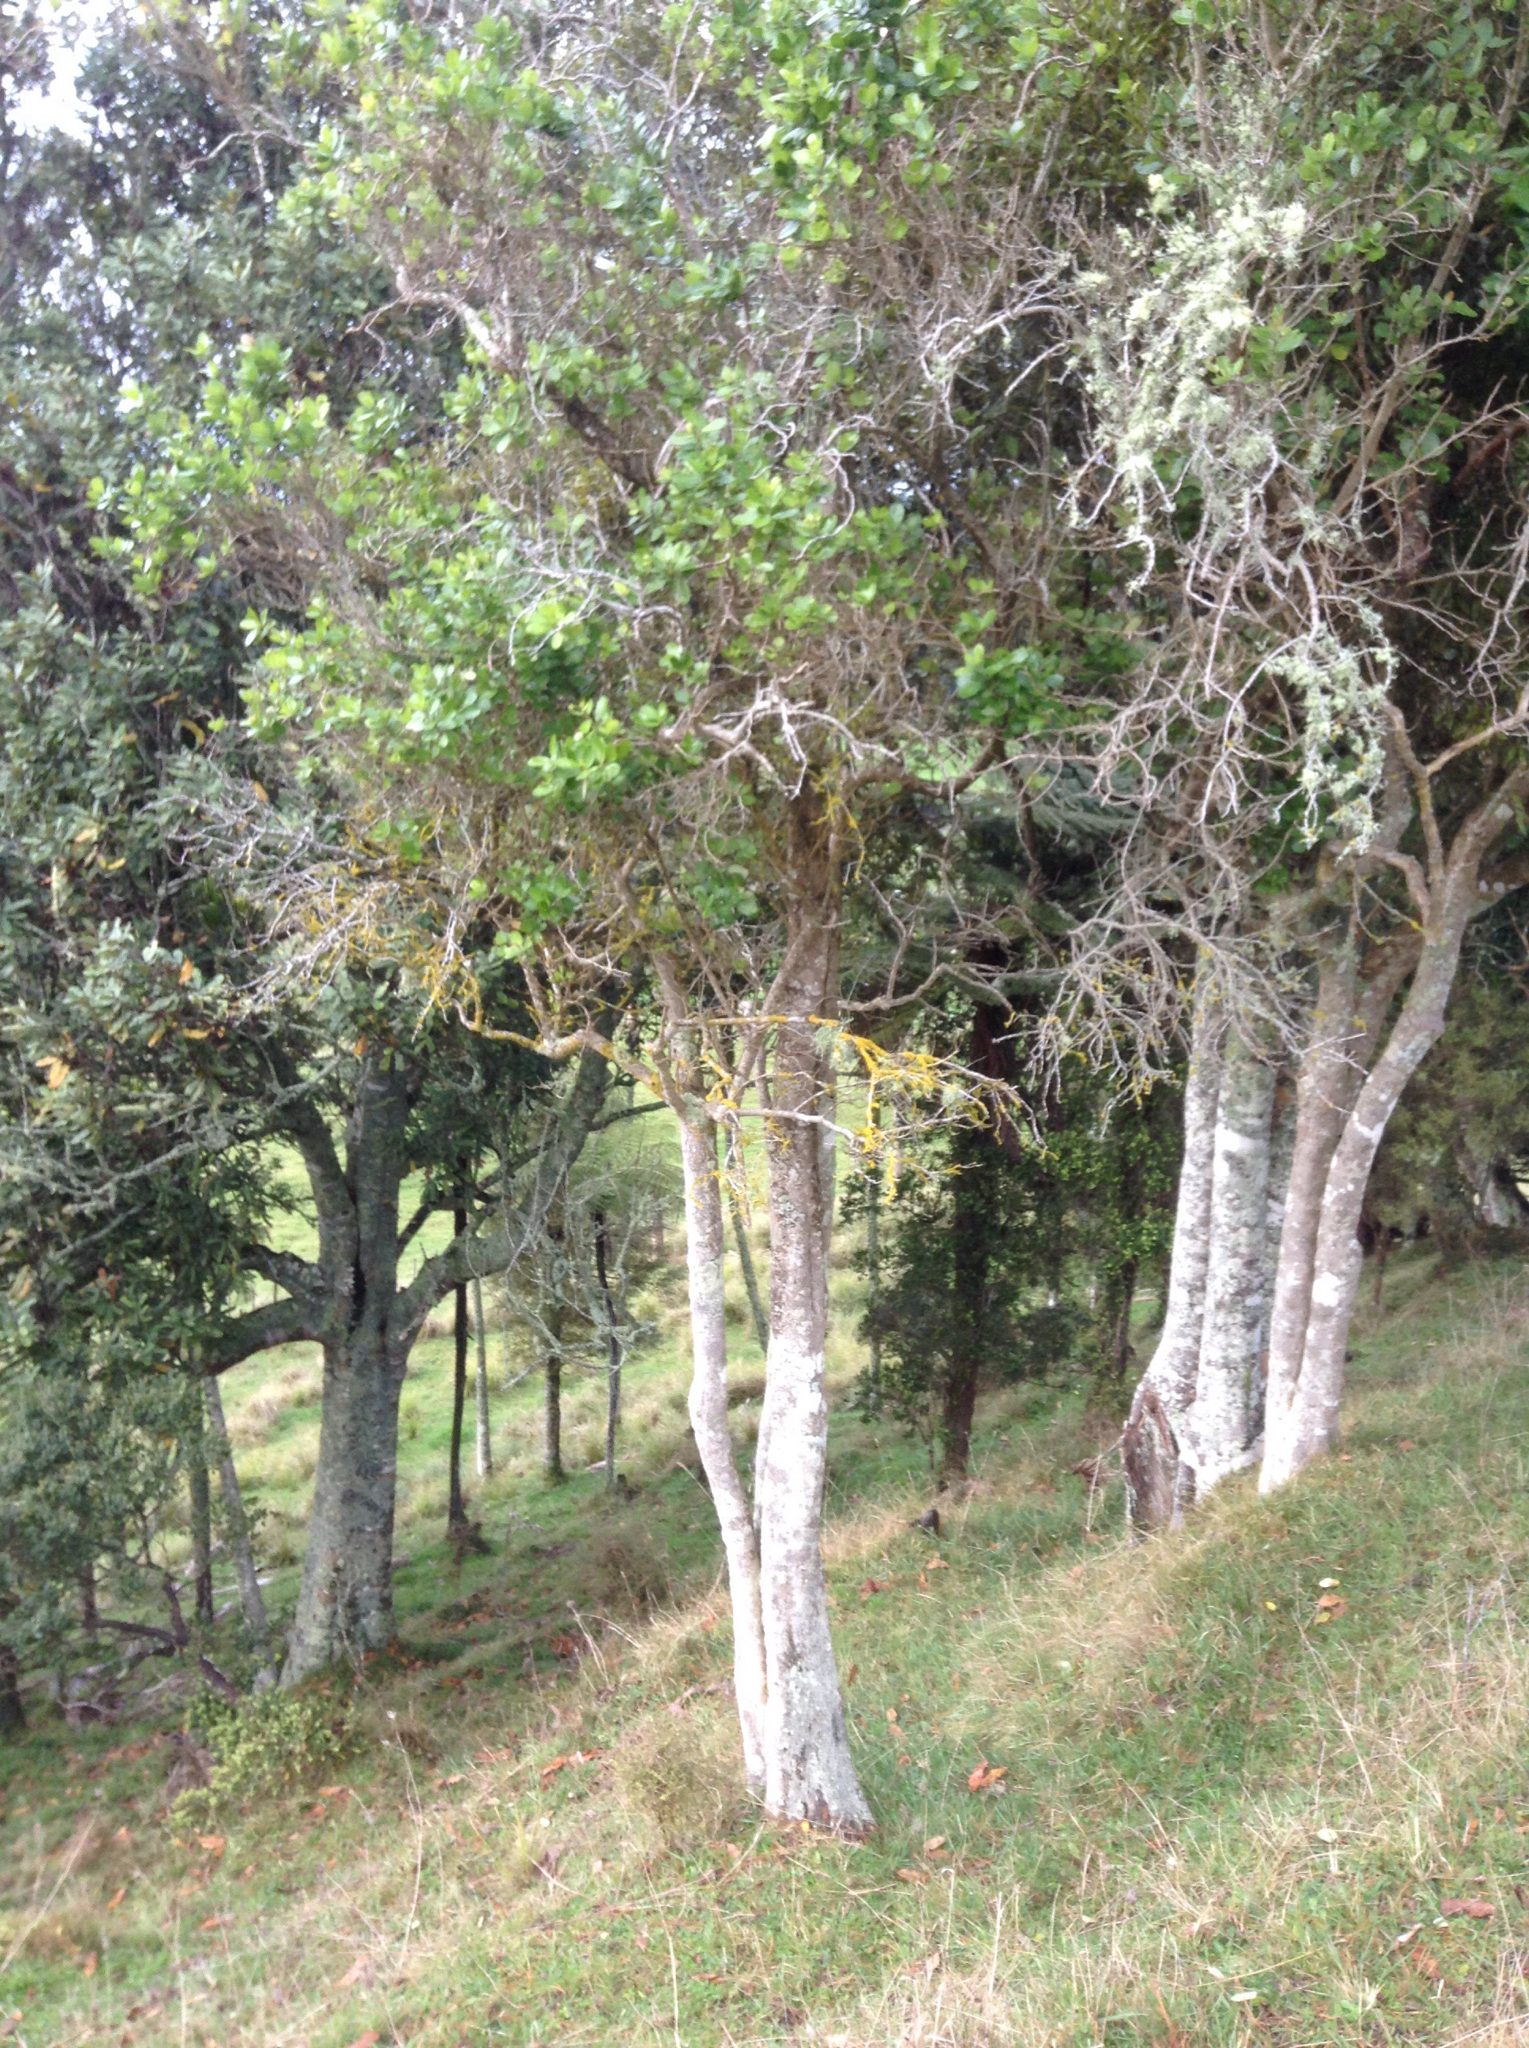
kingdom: Plantae
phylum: Tracheophyta
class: Magnoliopsida
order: Apiales
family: Pennantiaceae
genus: Pennantia
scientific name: Pennantia corymbosa
